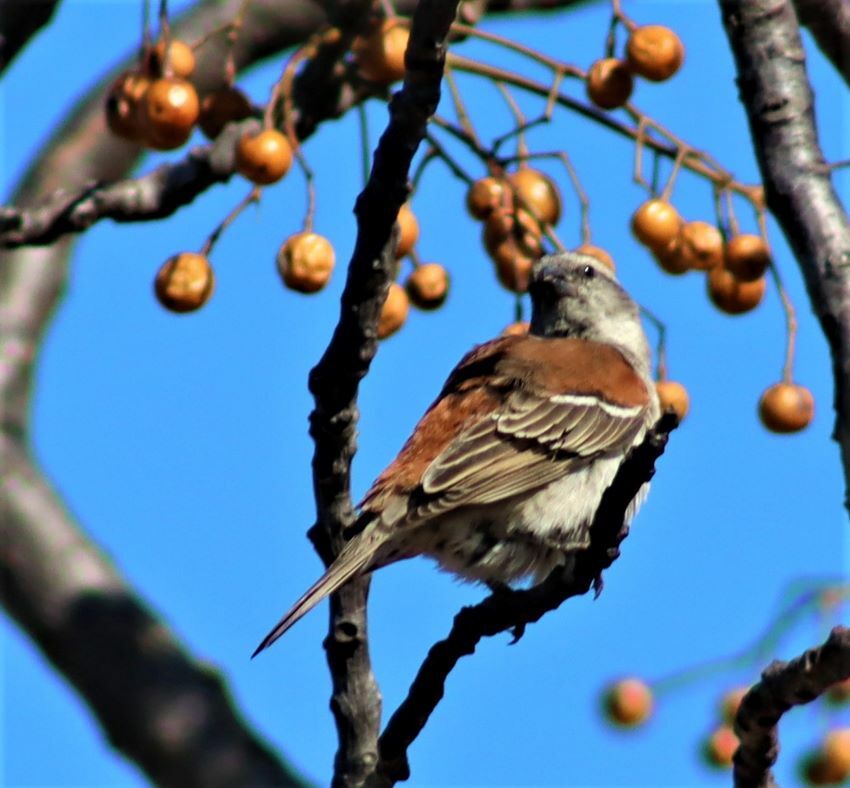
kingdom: Animalia
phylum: Chordata
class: Aves
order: Passeriformes
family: Passeridae
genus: Passer
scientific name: Passer melanurus
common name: Cape sparrow
